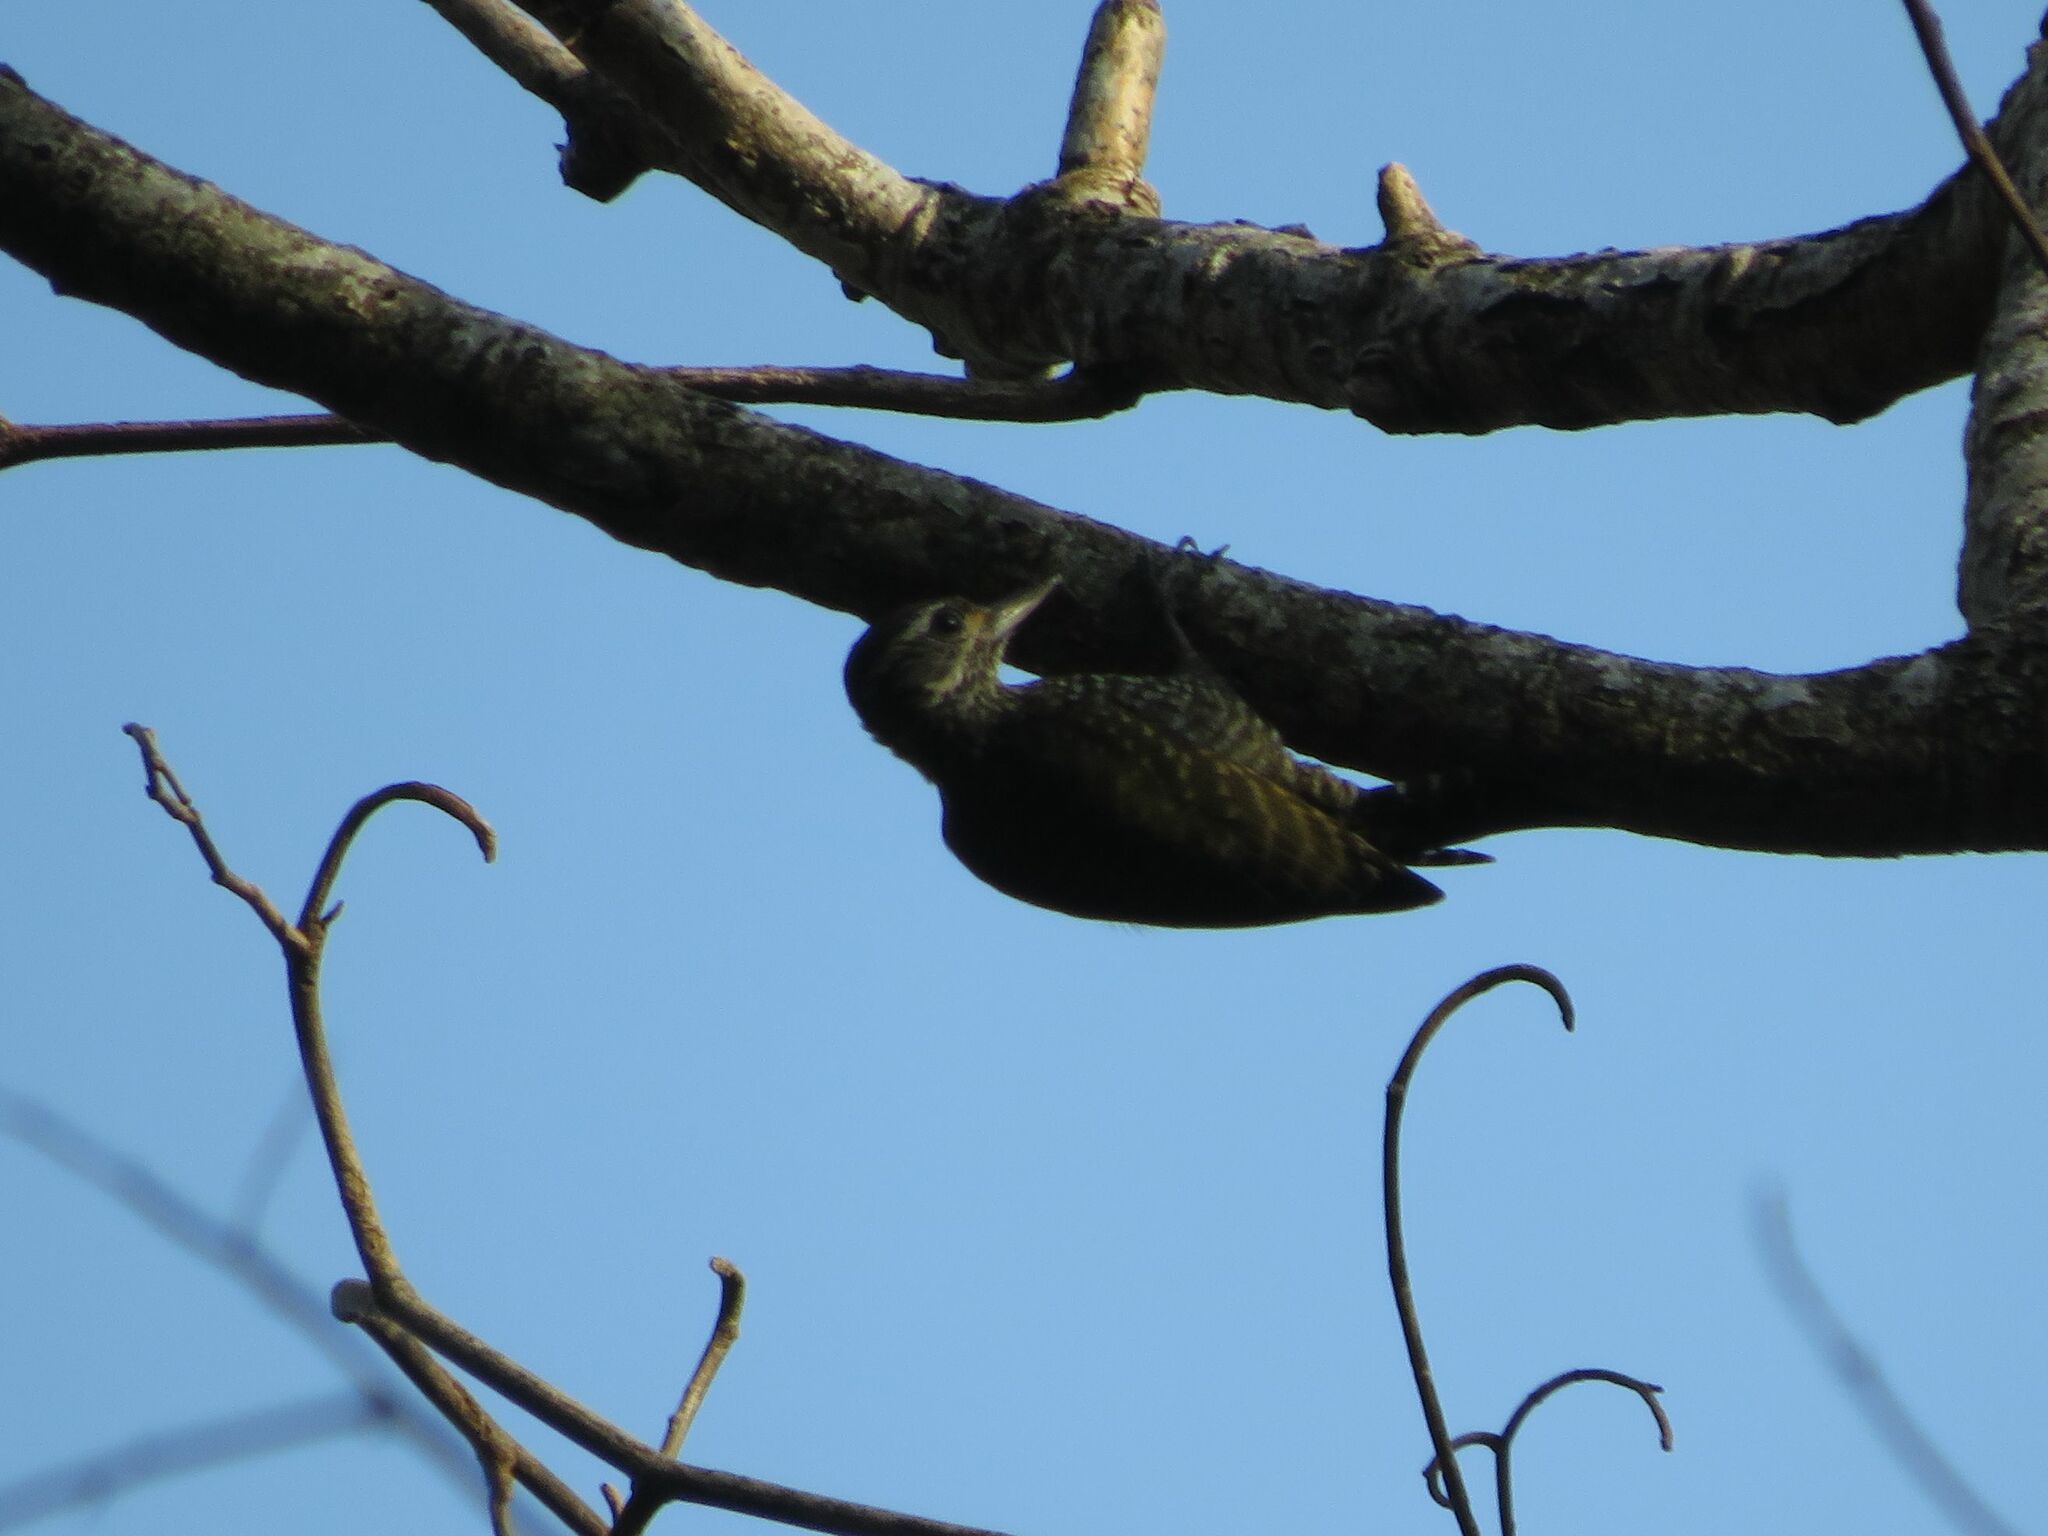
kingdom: Animalia
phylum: Chordata
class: Aves
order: Piciformes
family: Picidae
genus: Veniliornis
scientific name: Veniliornis spilogaster
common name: White-spotted woodpecker
